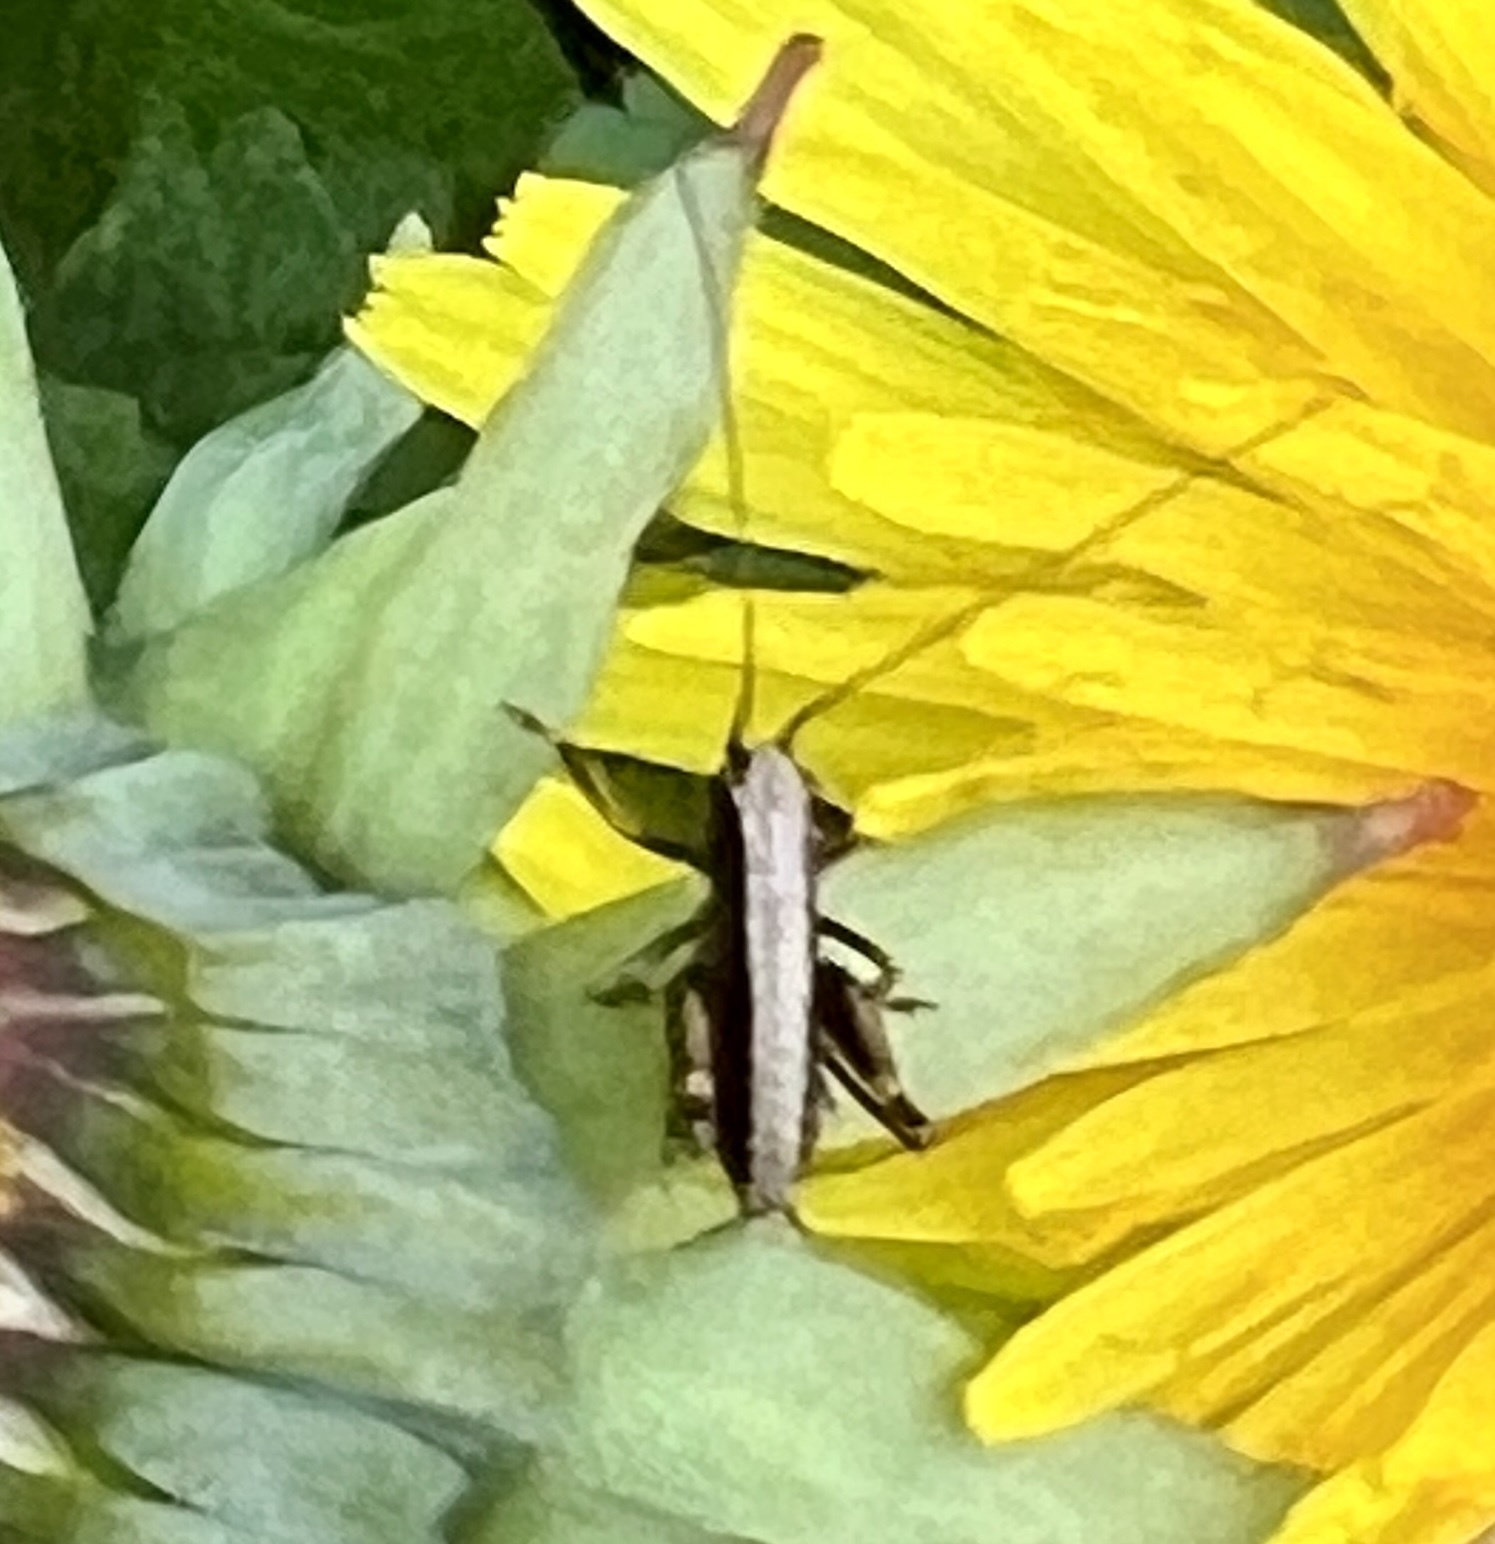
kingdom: Animalia
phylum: Arthropoda
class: Insecta
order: Orthoptera
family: Tettigoniidae
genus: Pholidoptera
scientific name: Pholidoptera griseoaptera
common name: Dark bush-cricket
